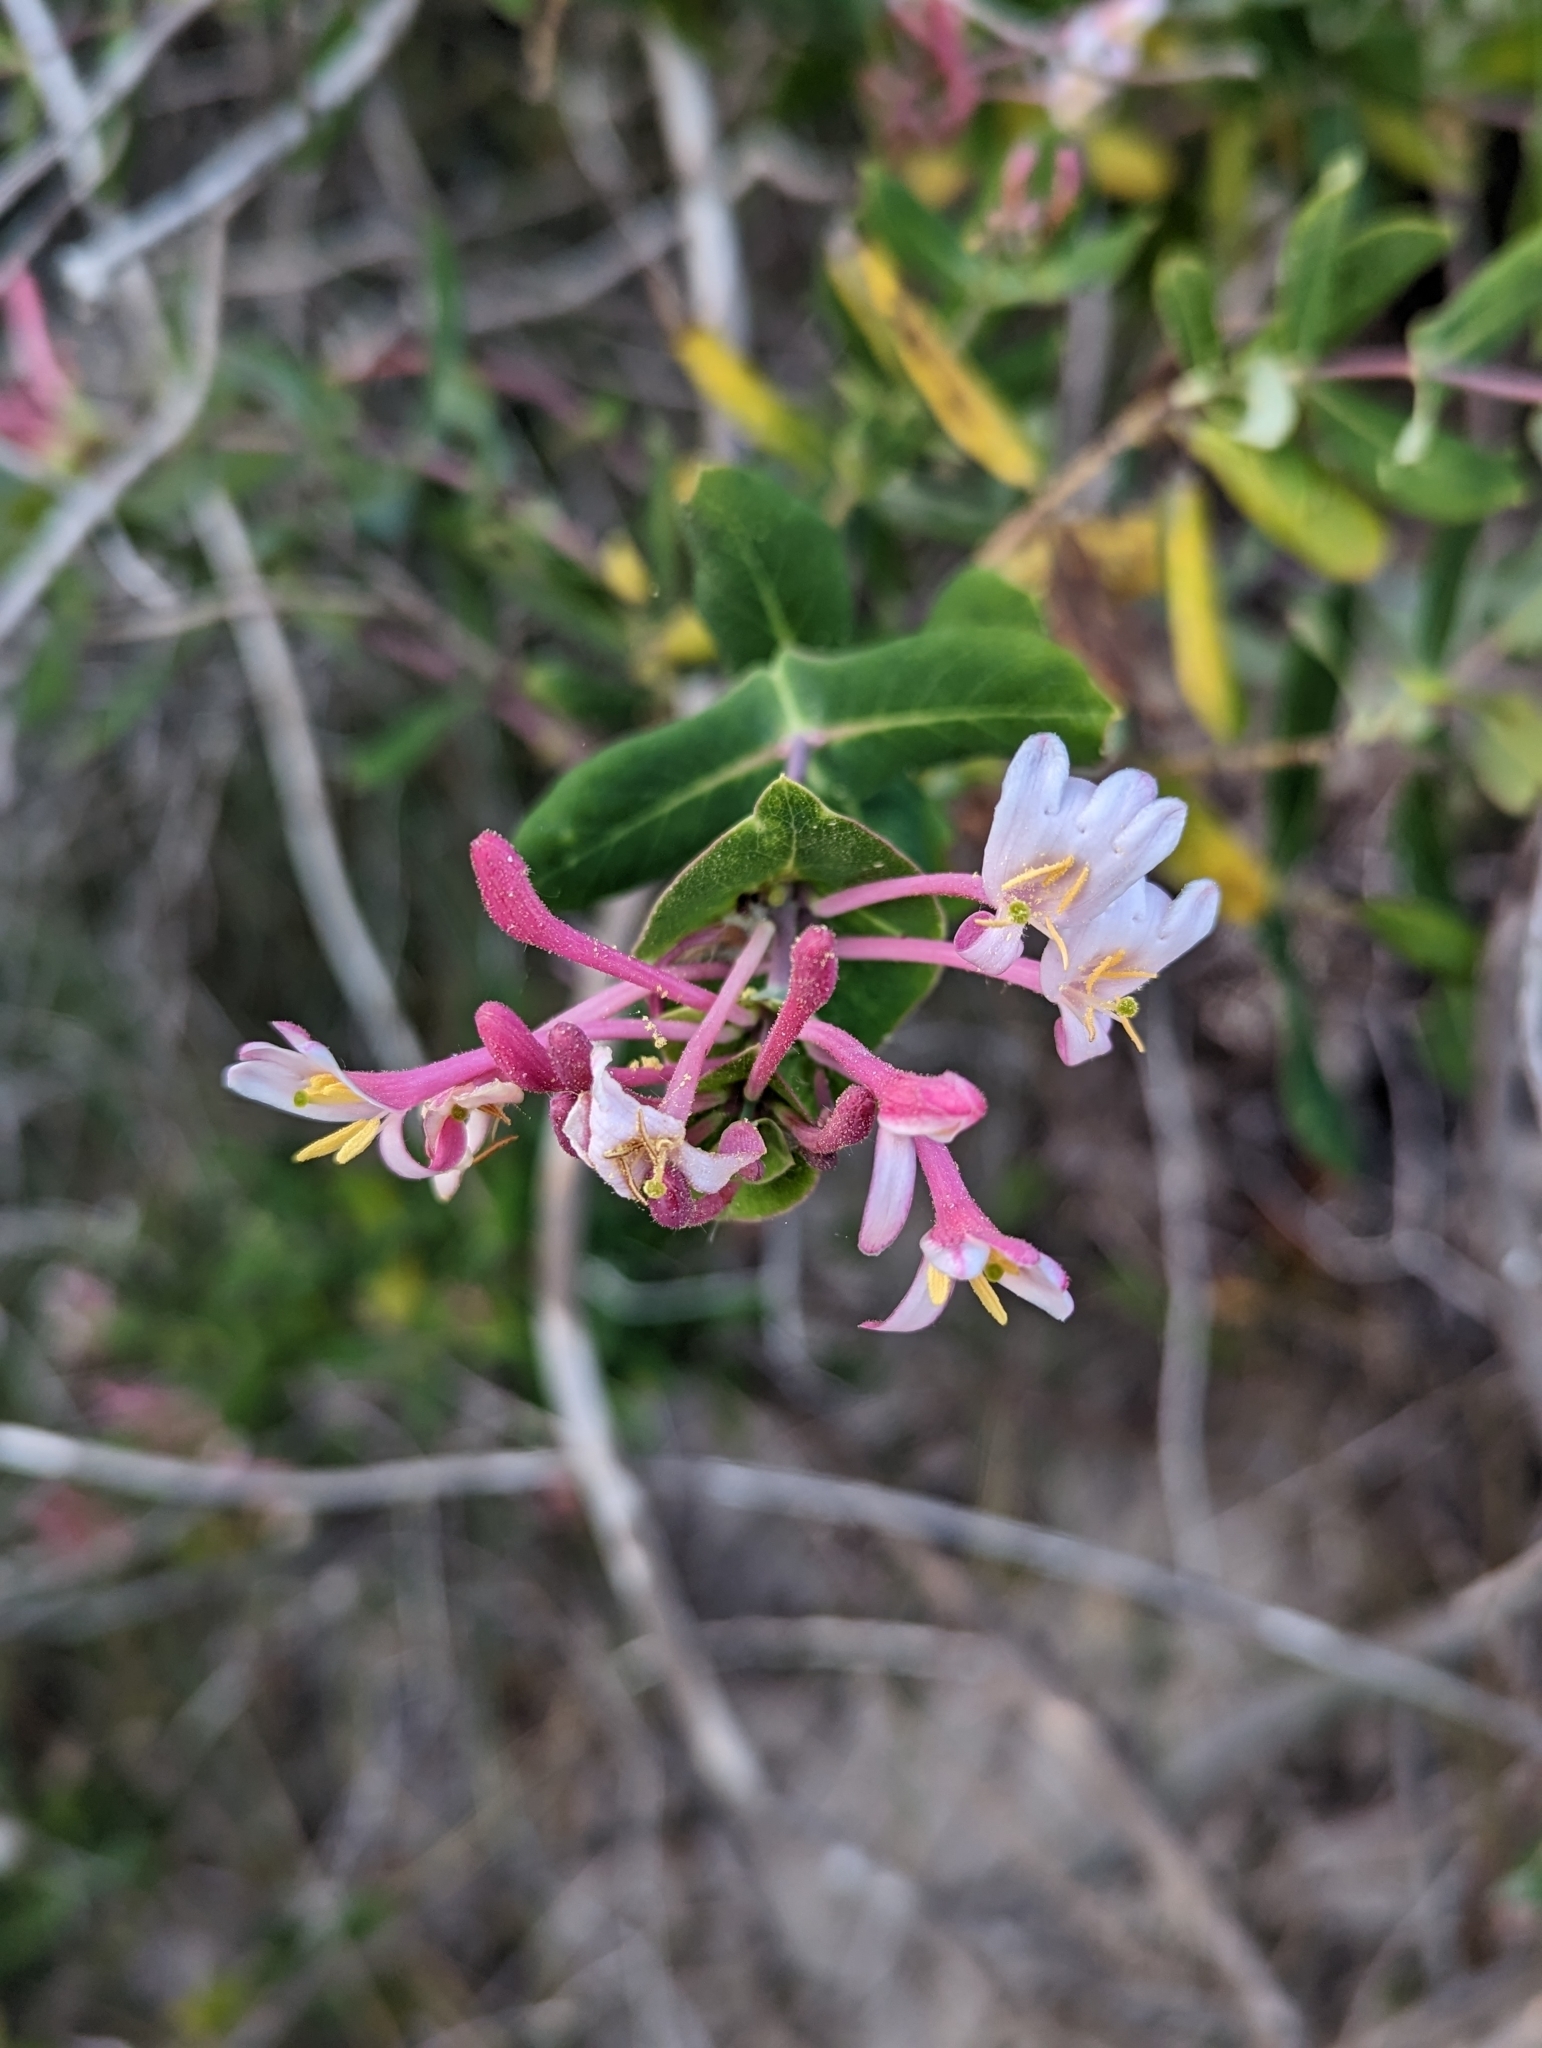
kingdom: Plantae
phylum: Tracheophyta
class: Magnoliopsida
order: Dipsacales
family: Caprifoliaceae
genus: Lonicera
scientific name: Lonicera implexa
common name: Minorca honeysuckle
